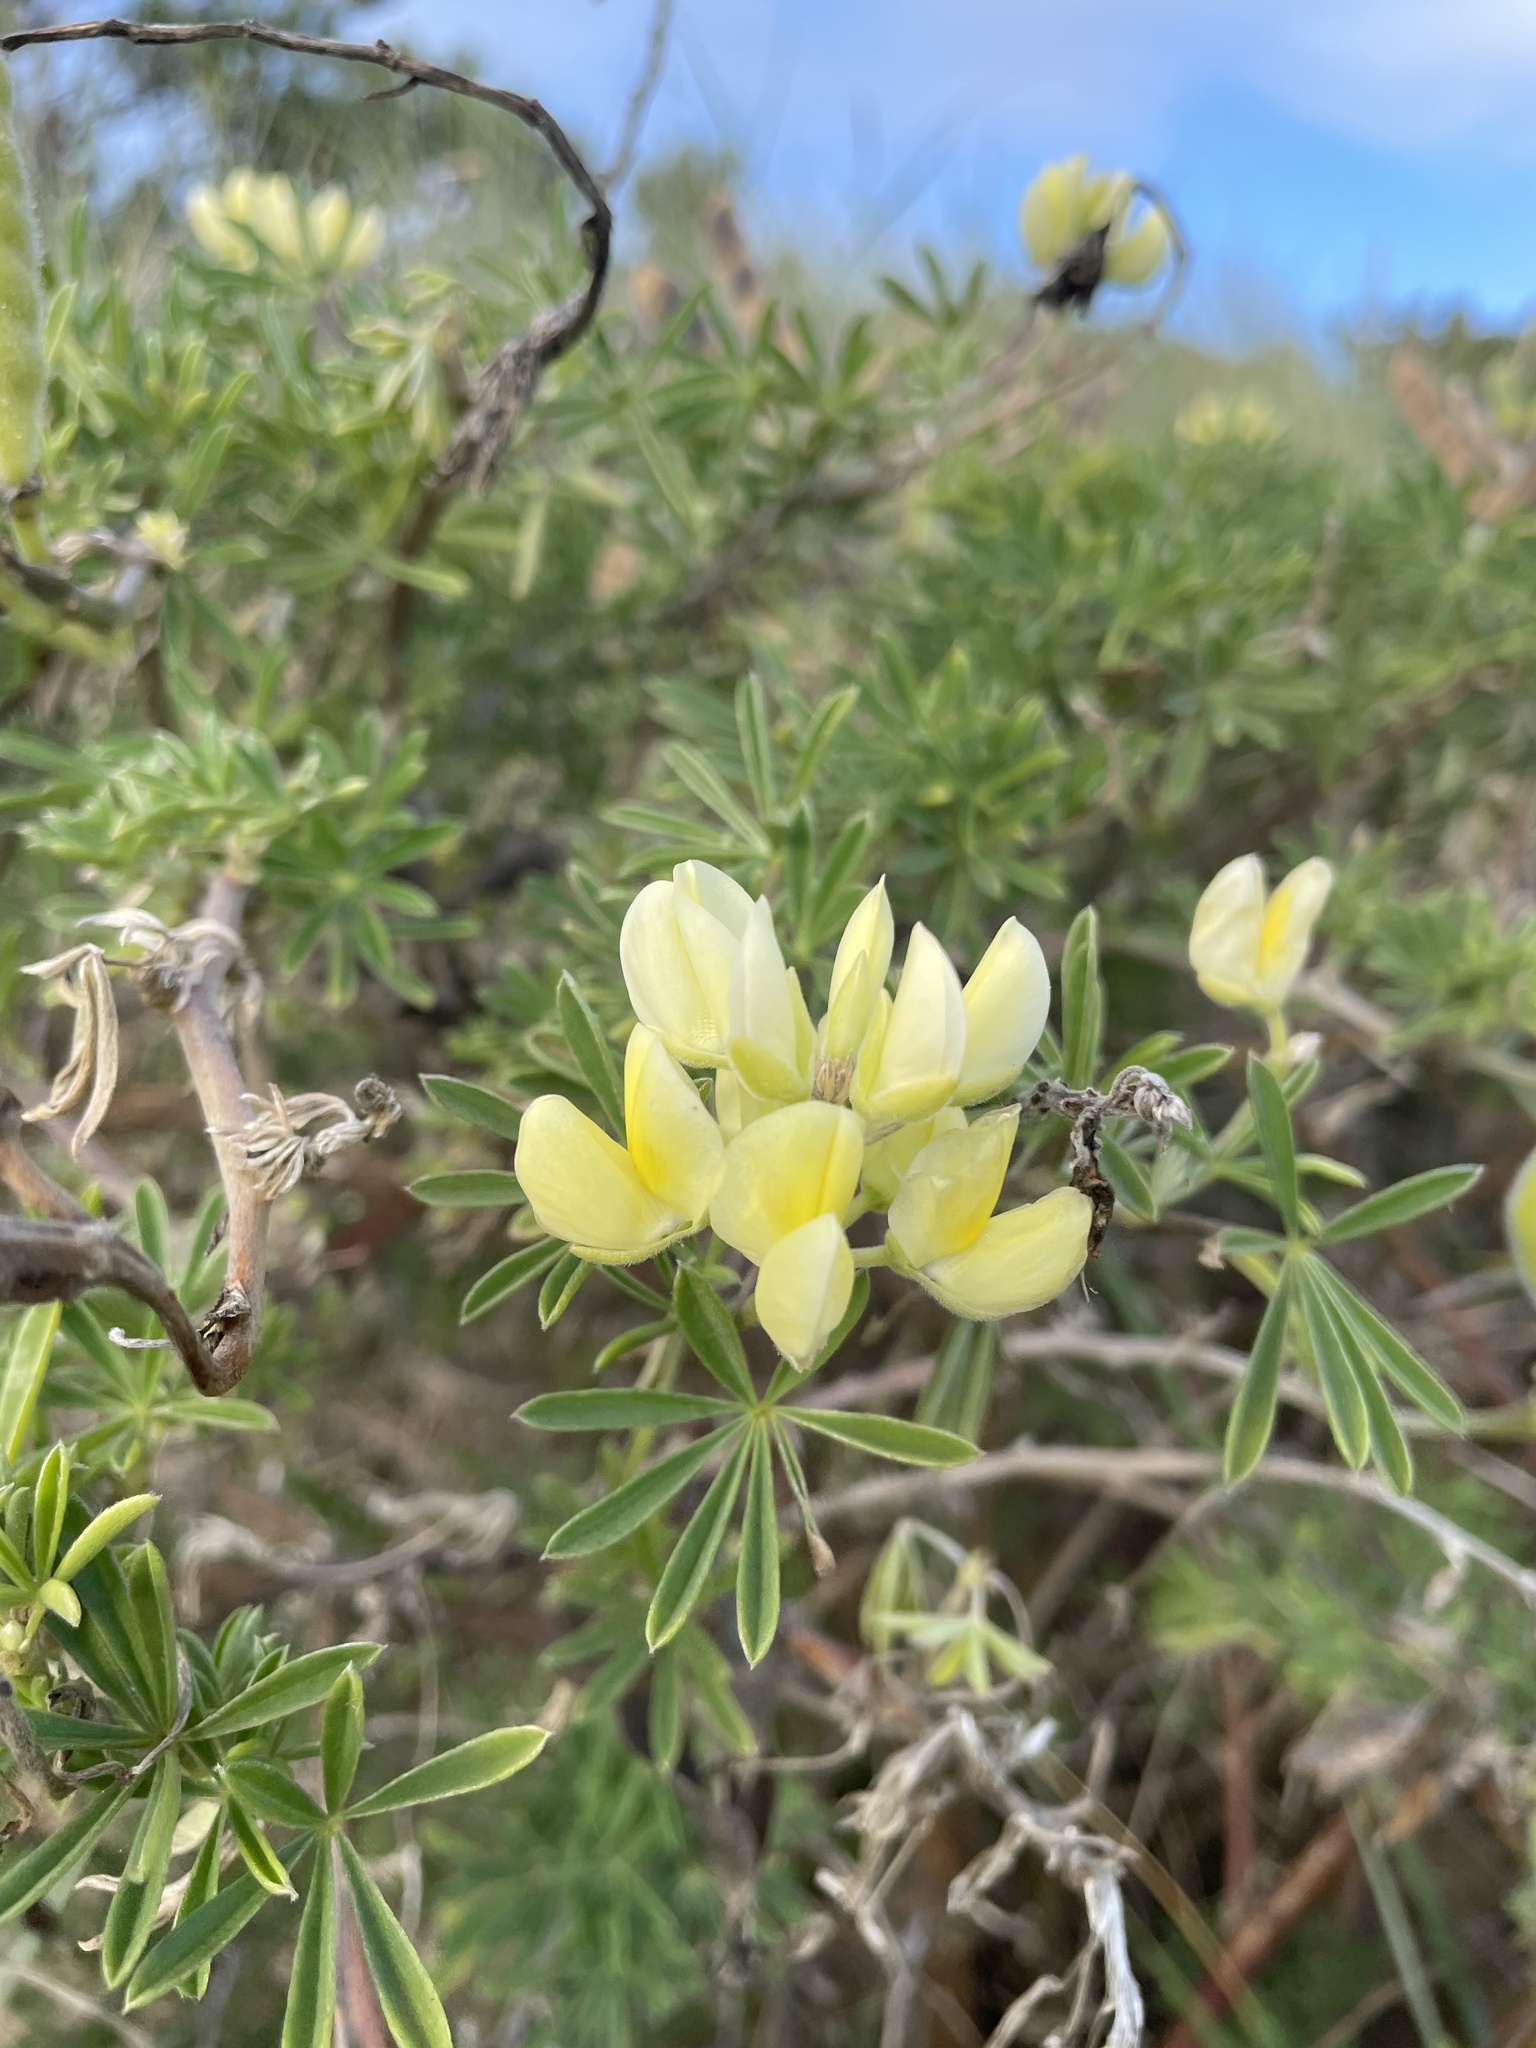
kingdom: Plantae
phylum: Tracheophyta
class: Magnoliopsida
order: Fabales
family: Fabaceae
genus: Lupinus
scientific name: Lupinus arboreus
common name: Yellow bush lupine
